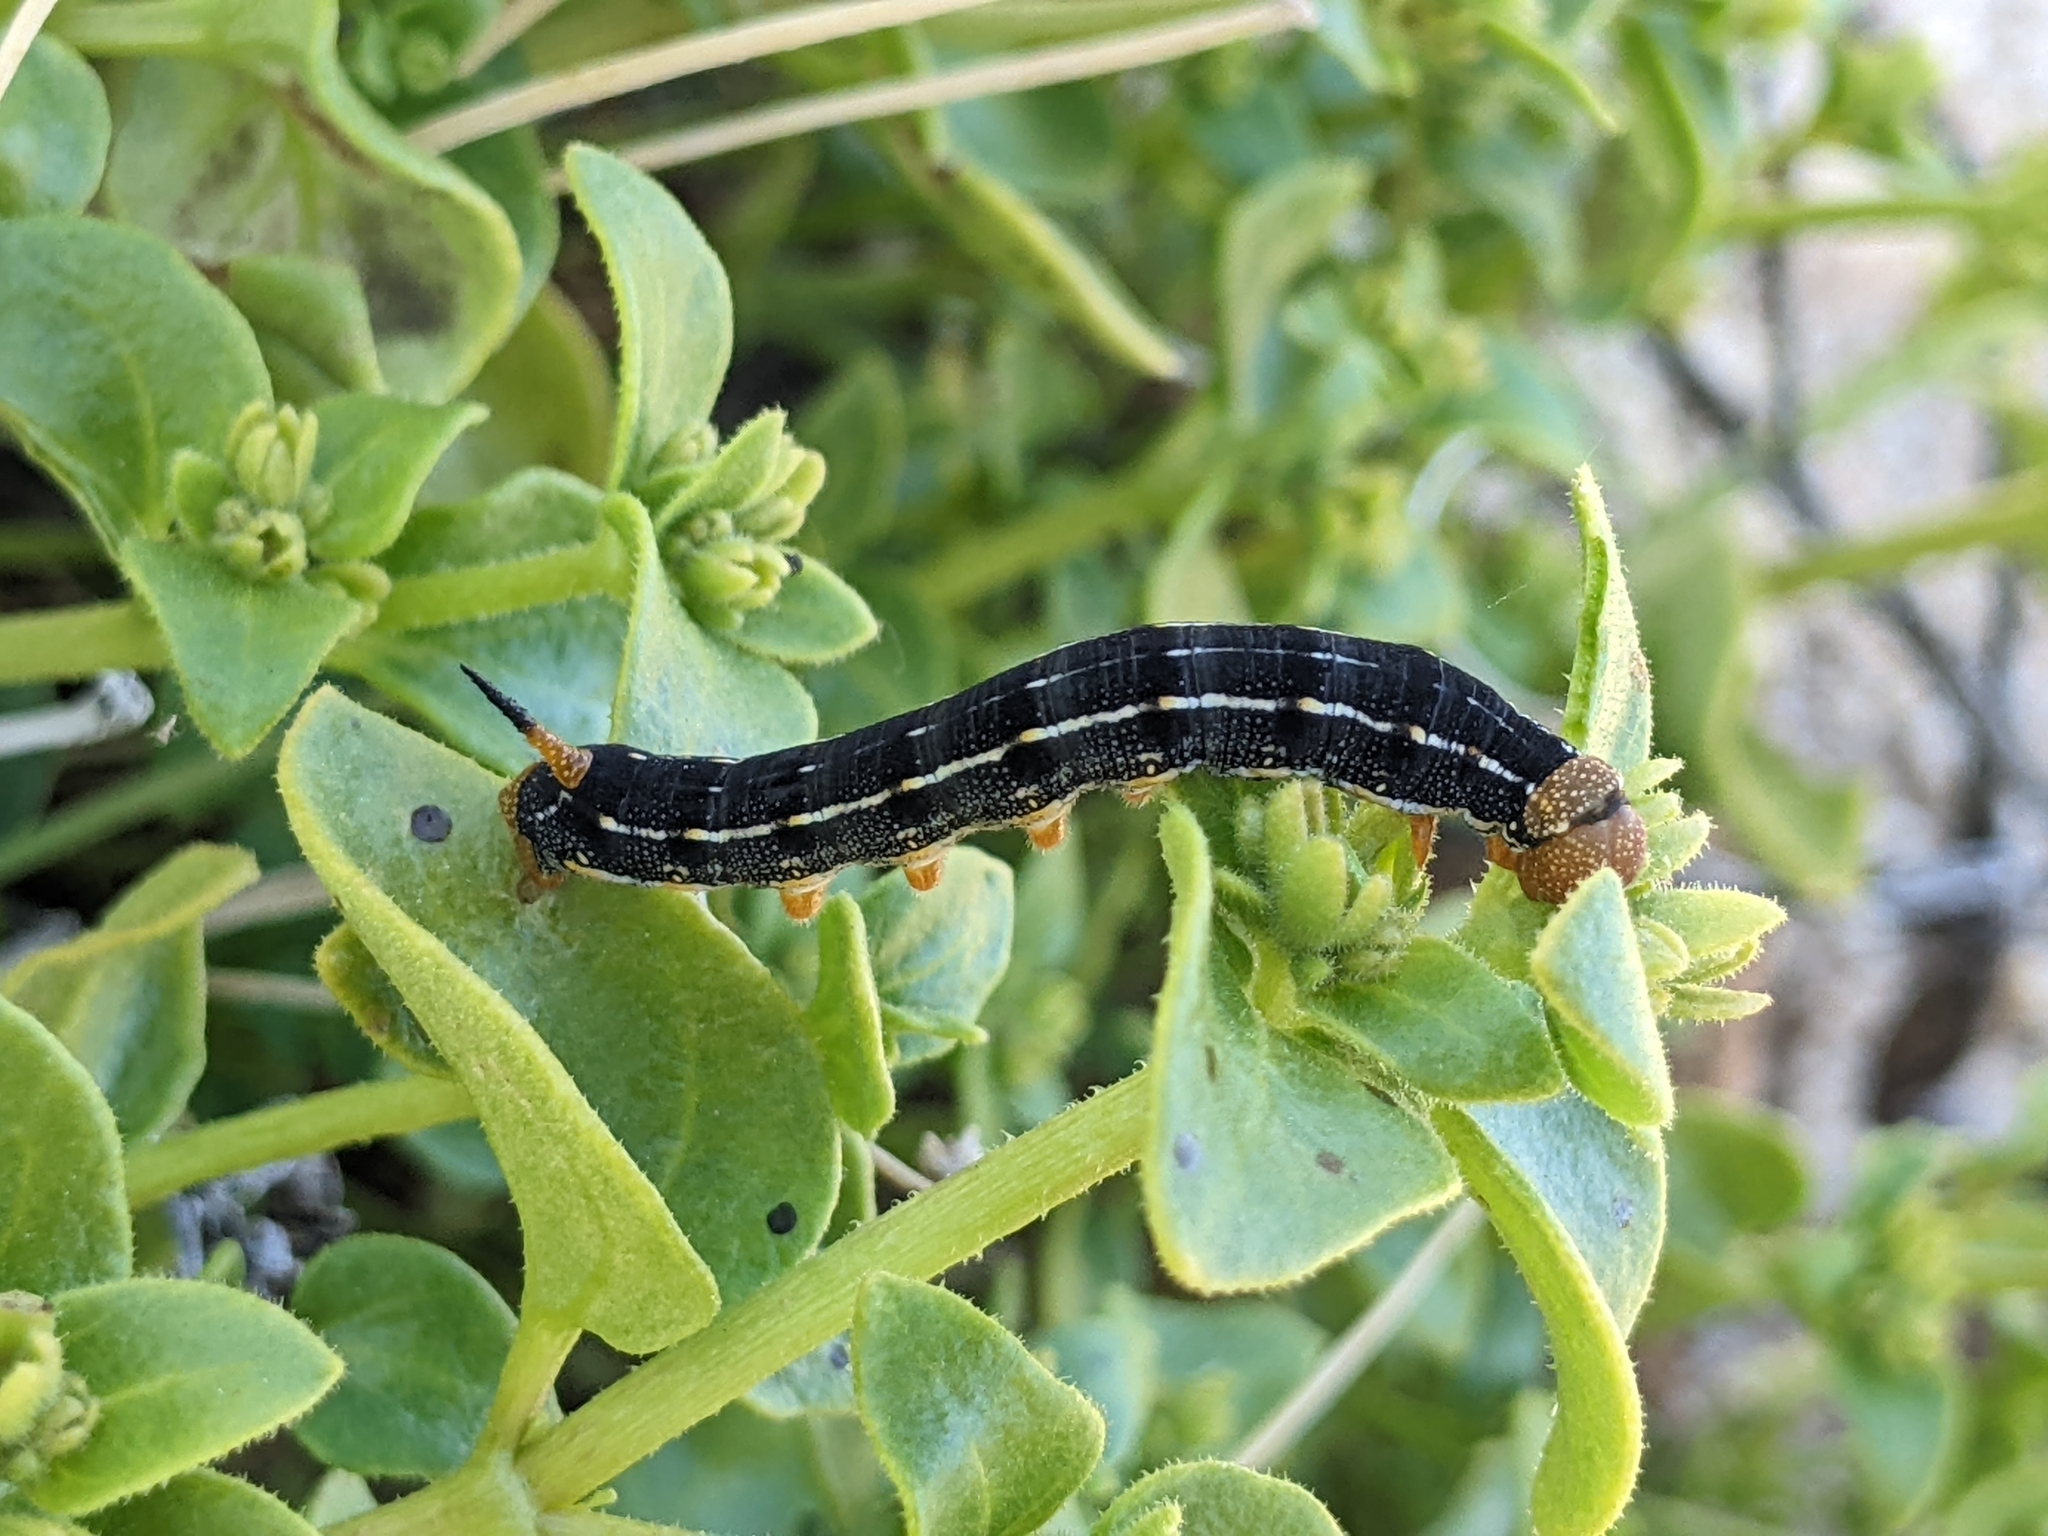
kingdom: Animalia
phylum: Arthropoda
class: Insecta
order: Lepidoptera
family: Sphingidae
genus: Hyles
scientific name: Hyles lineata
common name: White-lined sphinx
